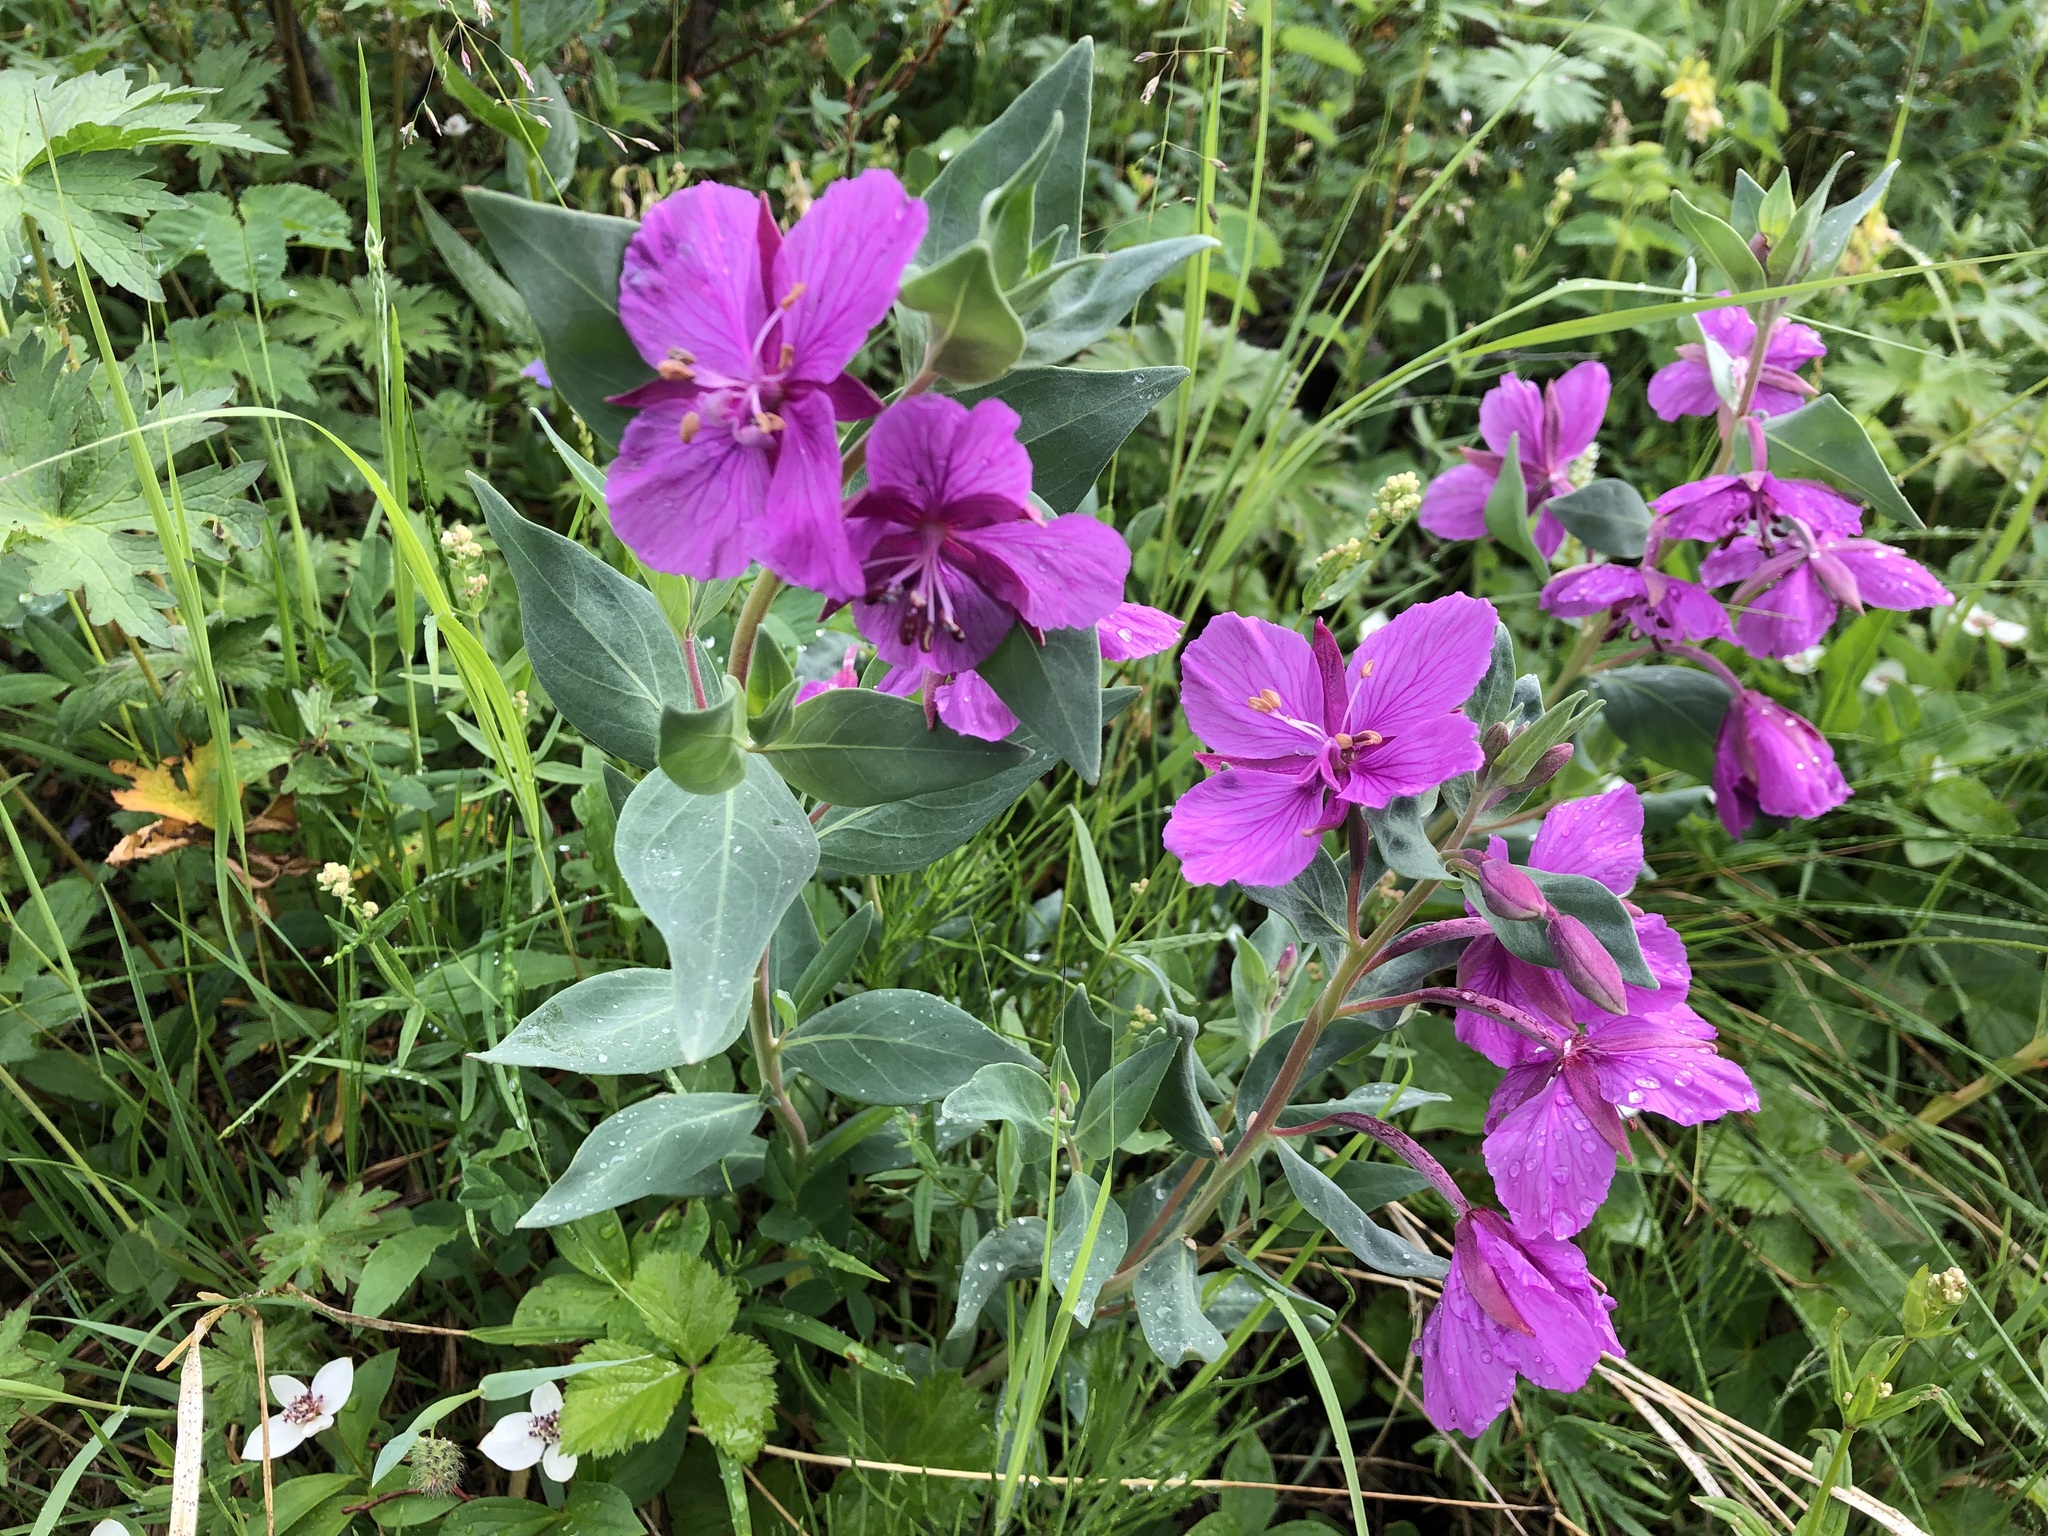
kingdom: Plantae
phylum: Tracheophyta
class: Magnoliopsida
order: Myrtales
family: Onagraceae
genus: Chamaenerion
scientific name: Chamaenerion latifolium
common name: Dwarf fireweed
